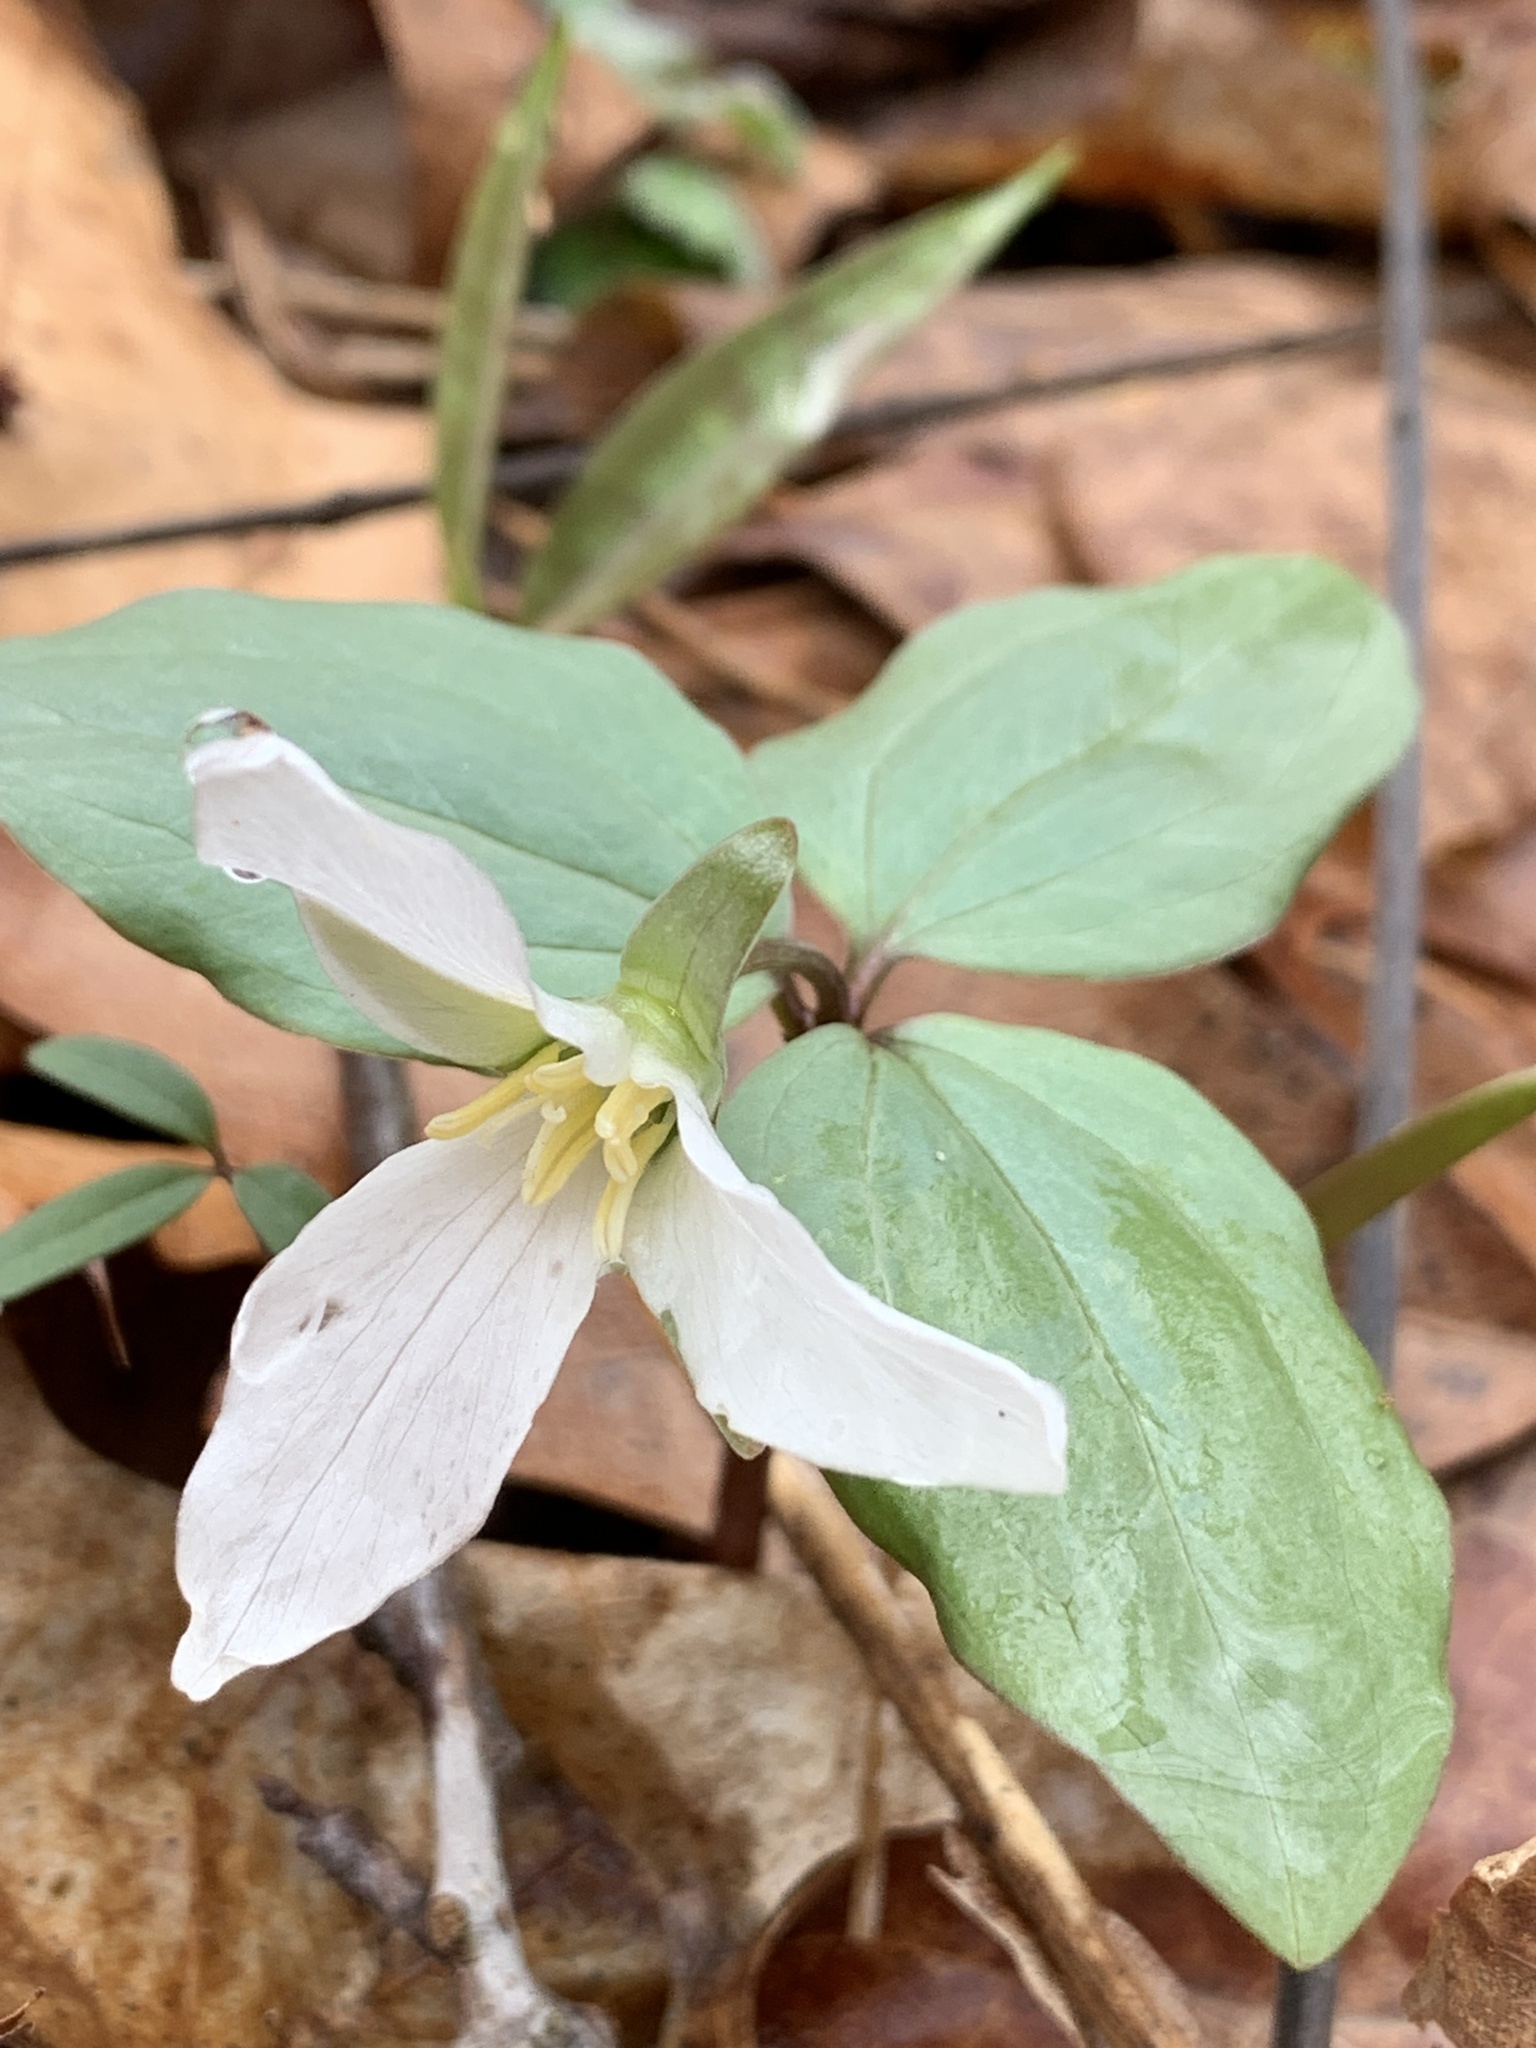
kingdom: Plantae
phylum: Tracheophyta
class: Liliopsida
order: Liliales
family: Melanthiaceae
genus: Trillium
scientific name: Trillium nivale
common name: Dwarf white trillium
